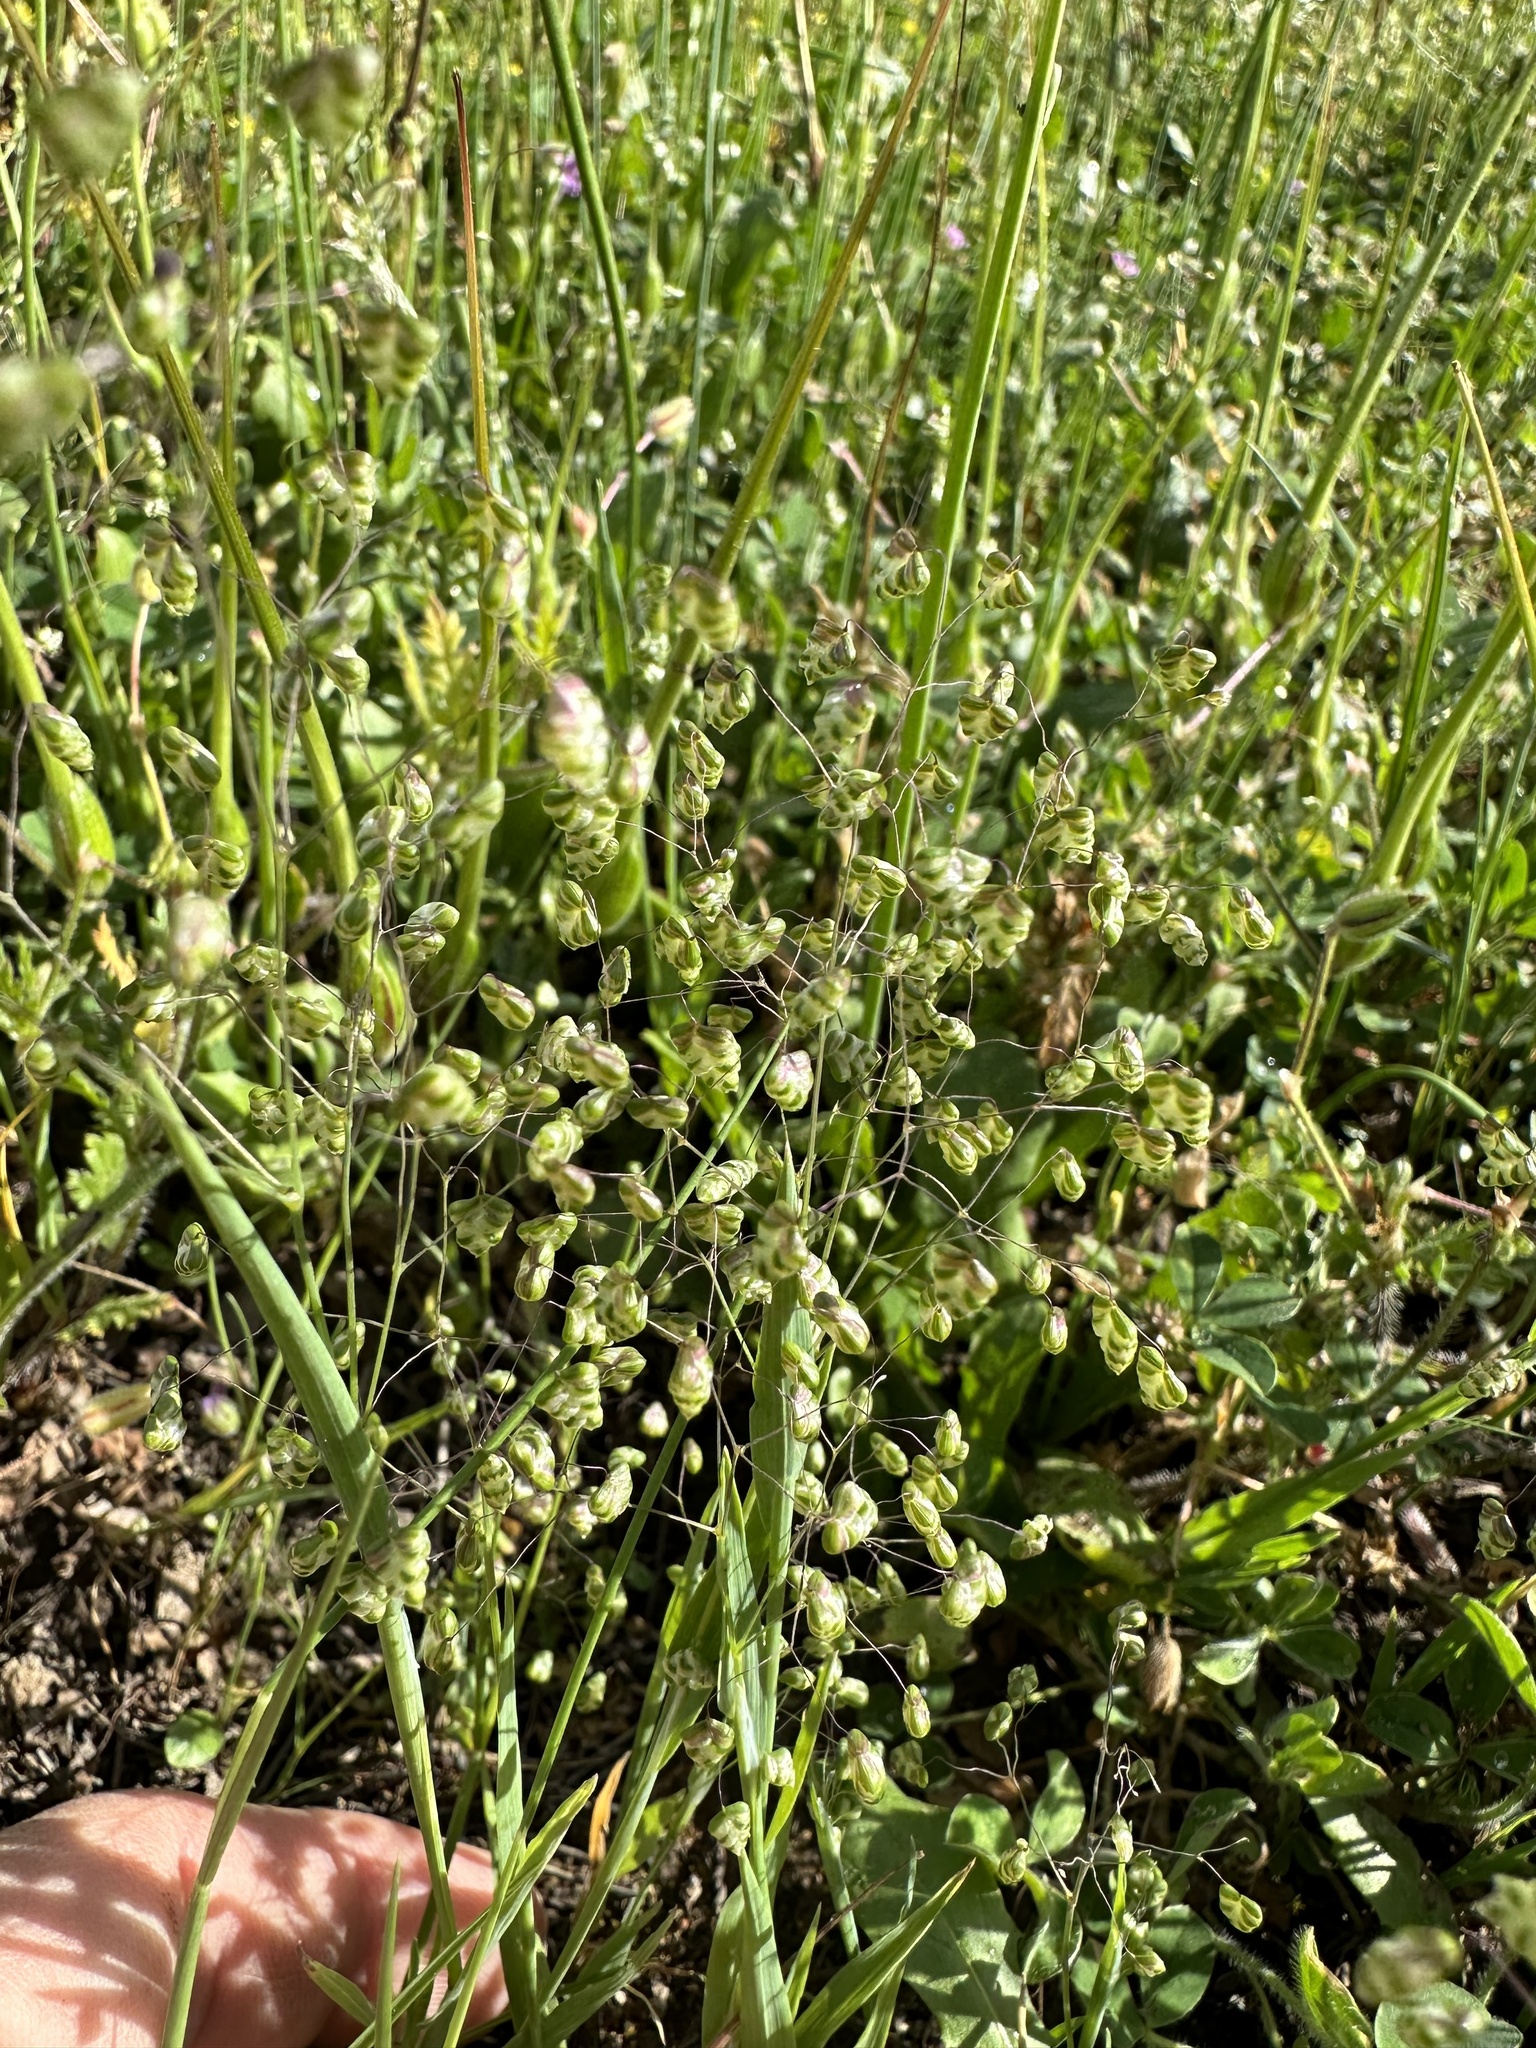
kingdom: Plantae
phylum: Tracheophyta
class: Liliopsida
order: Poales
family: Poaceae
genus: Briza
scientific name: Briza minor
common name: Lesser quaking-grass
